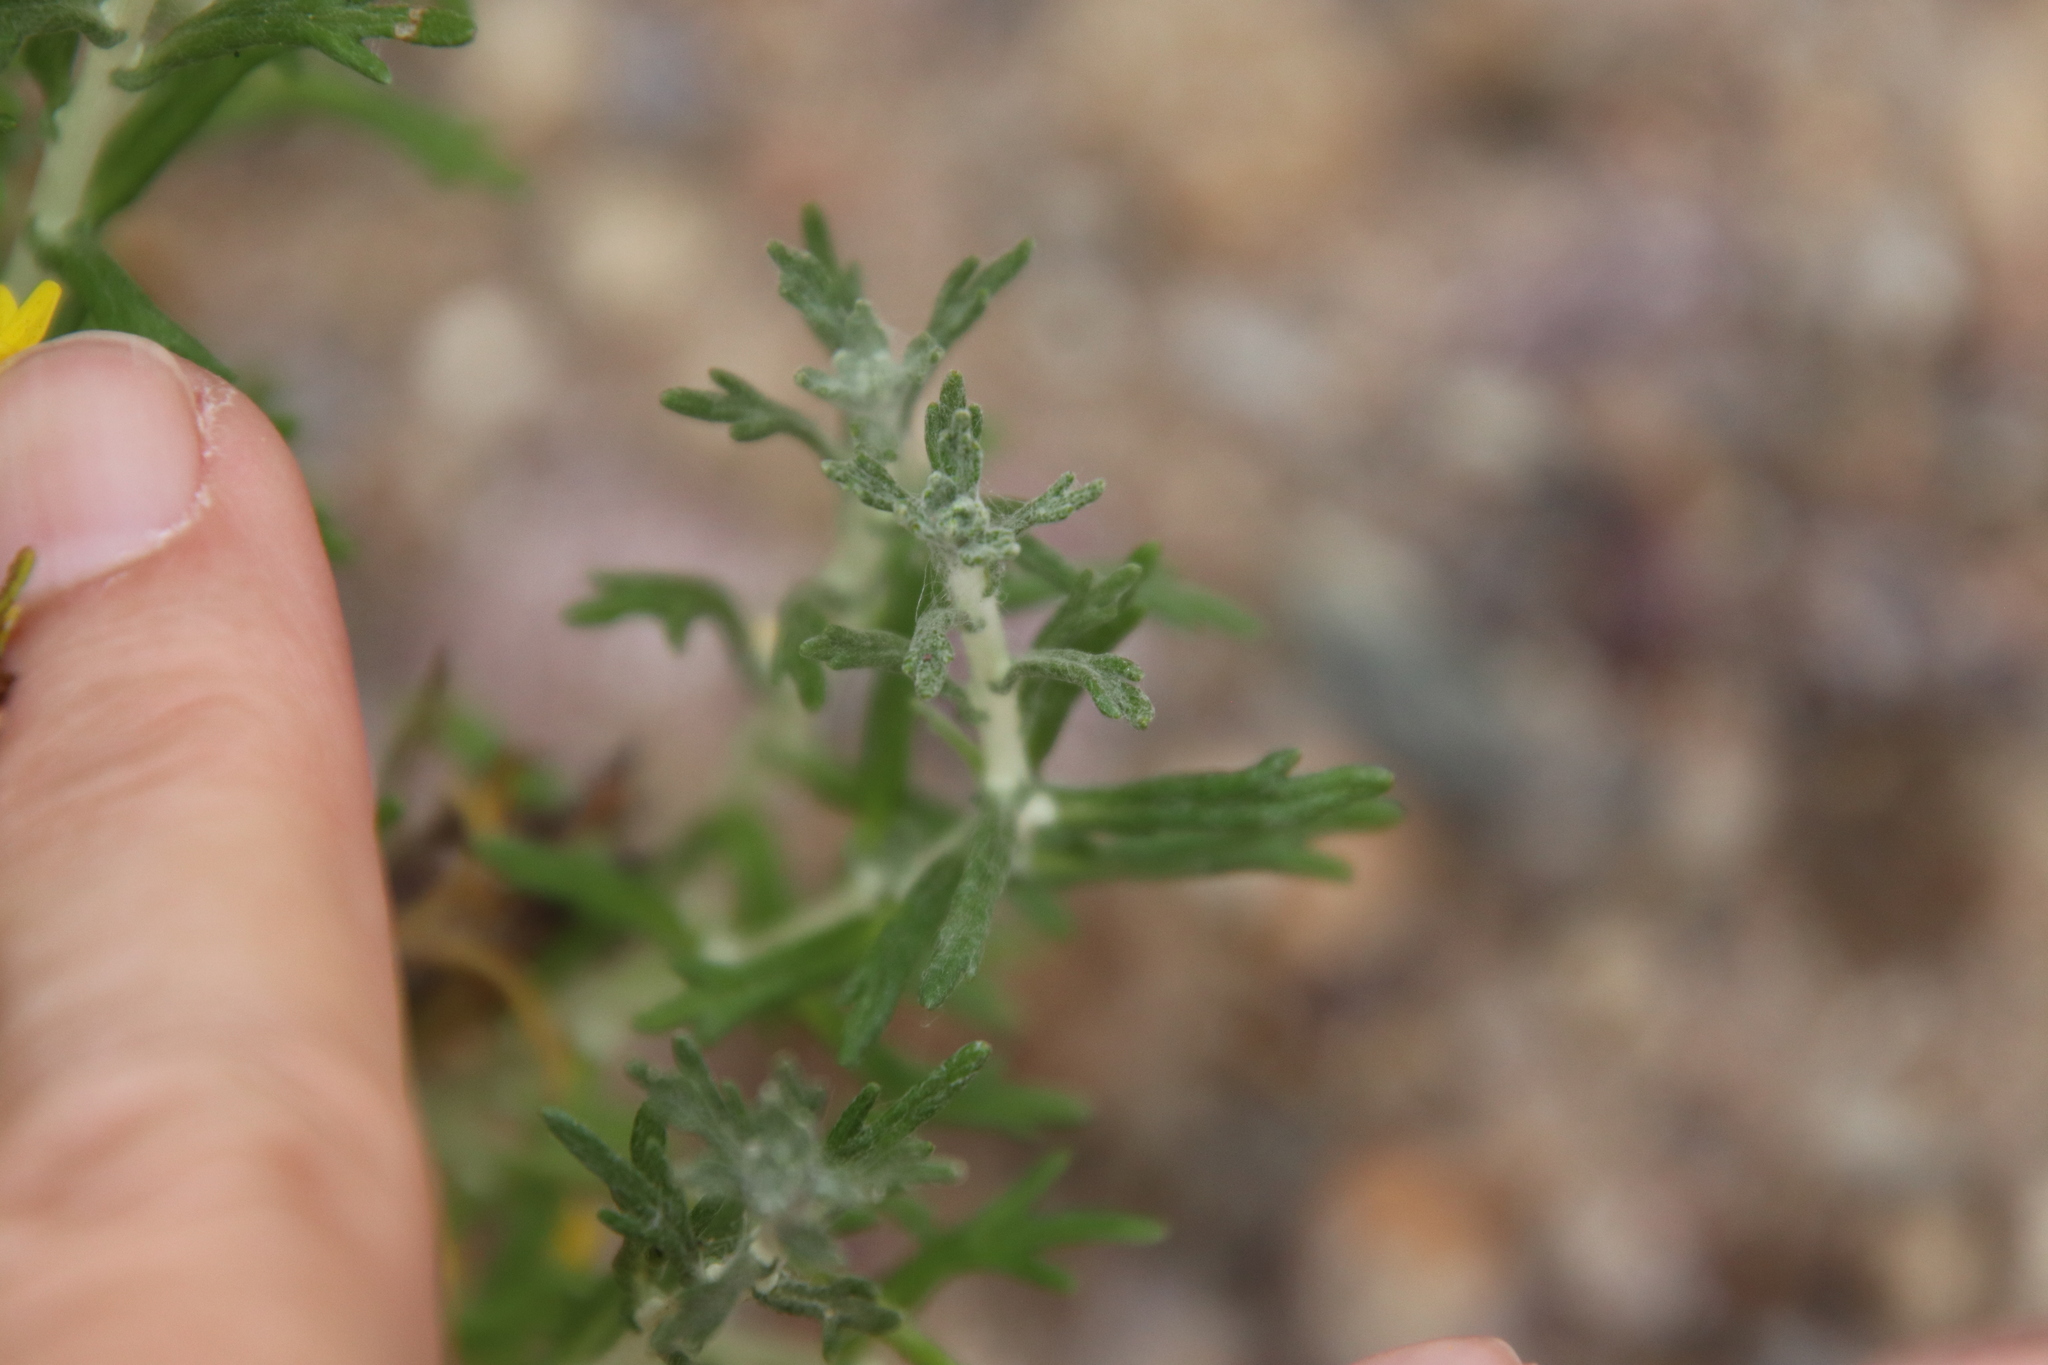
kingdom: Plantae
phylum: Tracheophyta
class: Magnoliopsida
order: Asterales
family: Asteraceae
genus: Eriophyllum
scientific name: Eriophyllum confertiflorum
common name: Golden-yarrow
